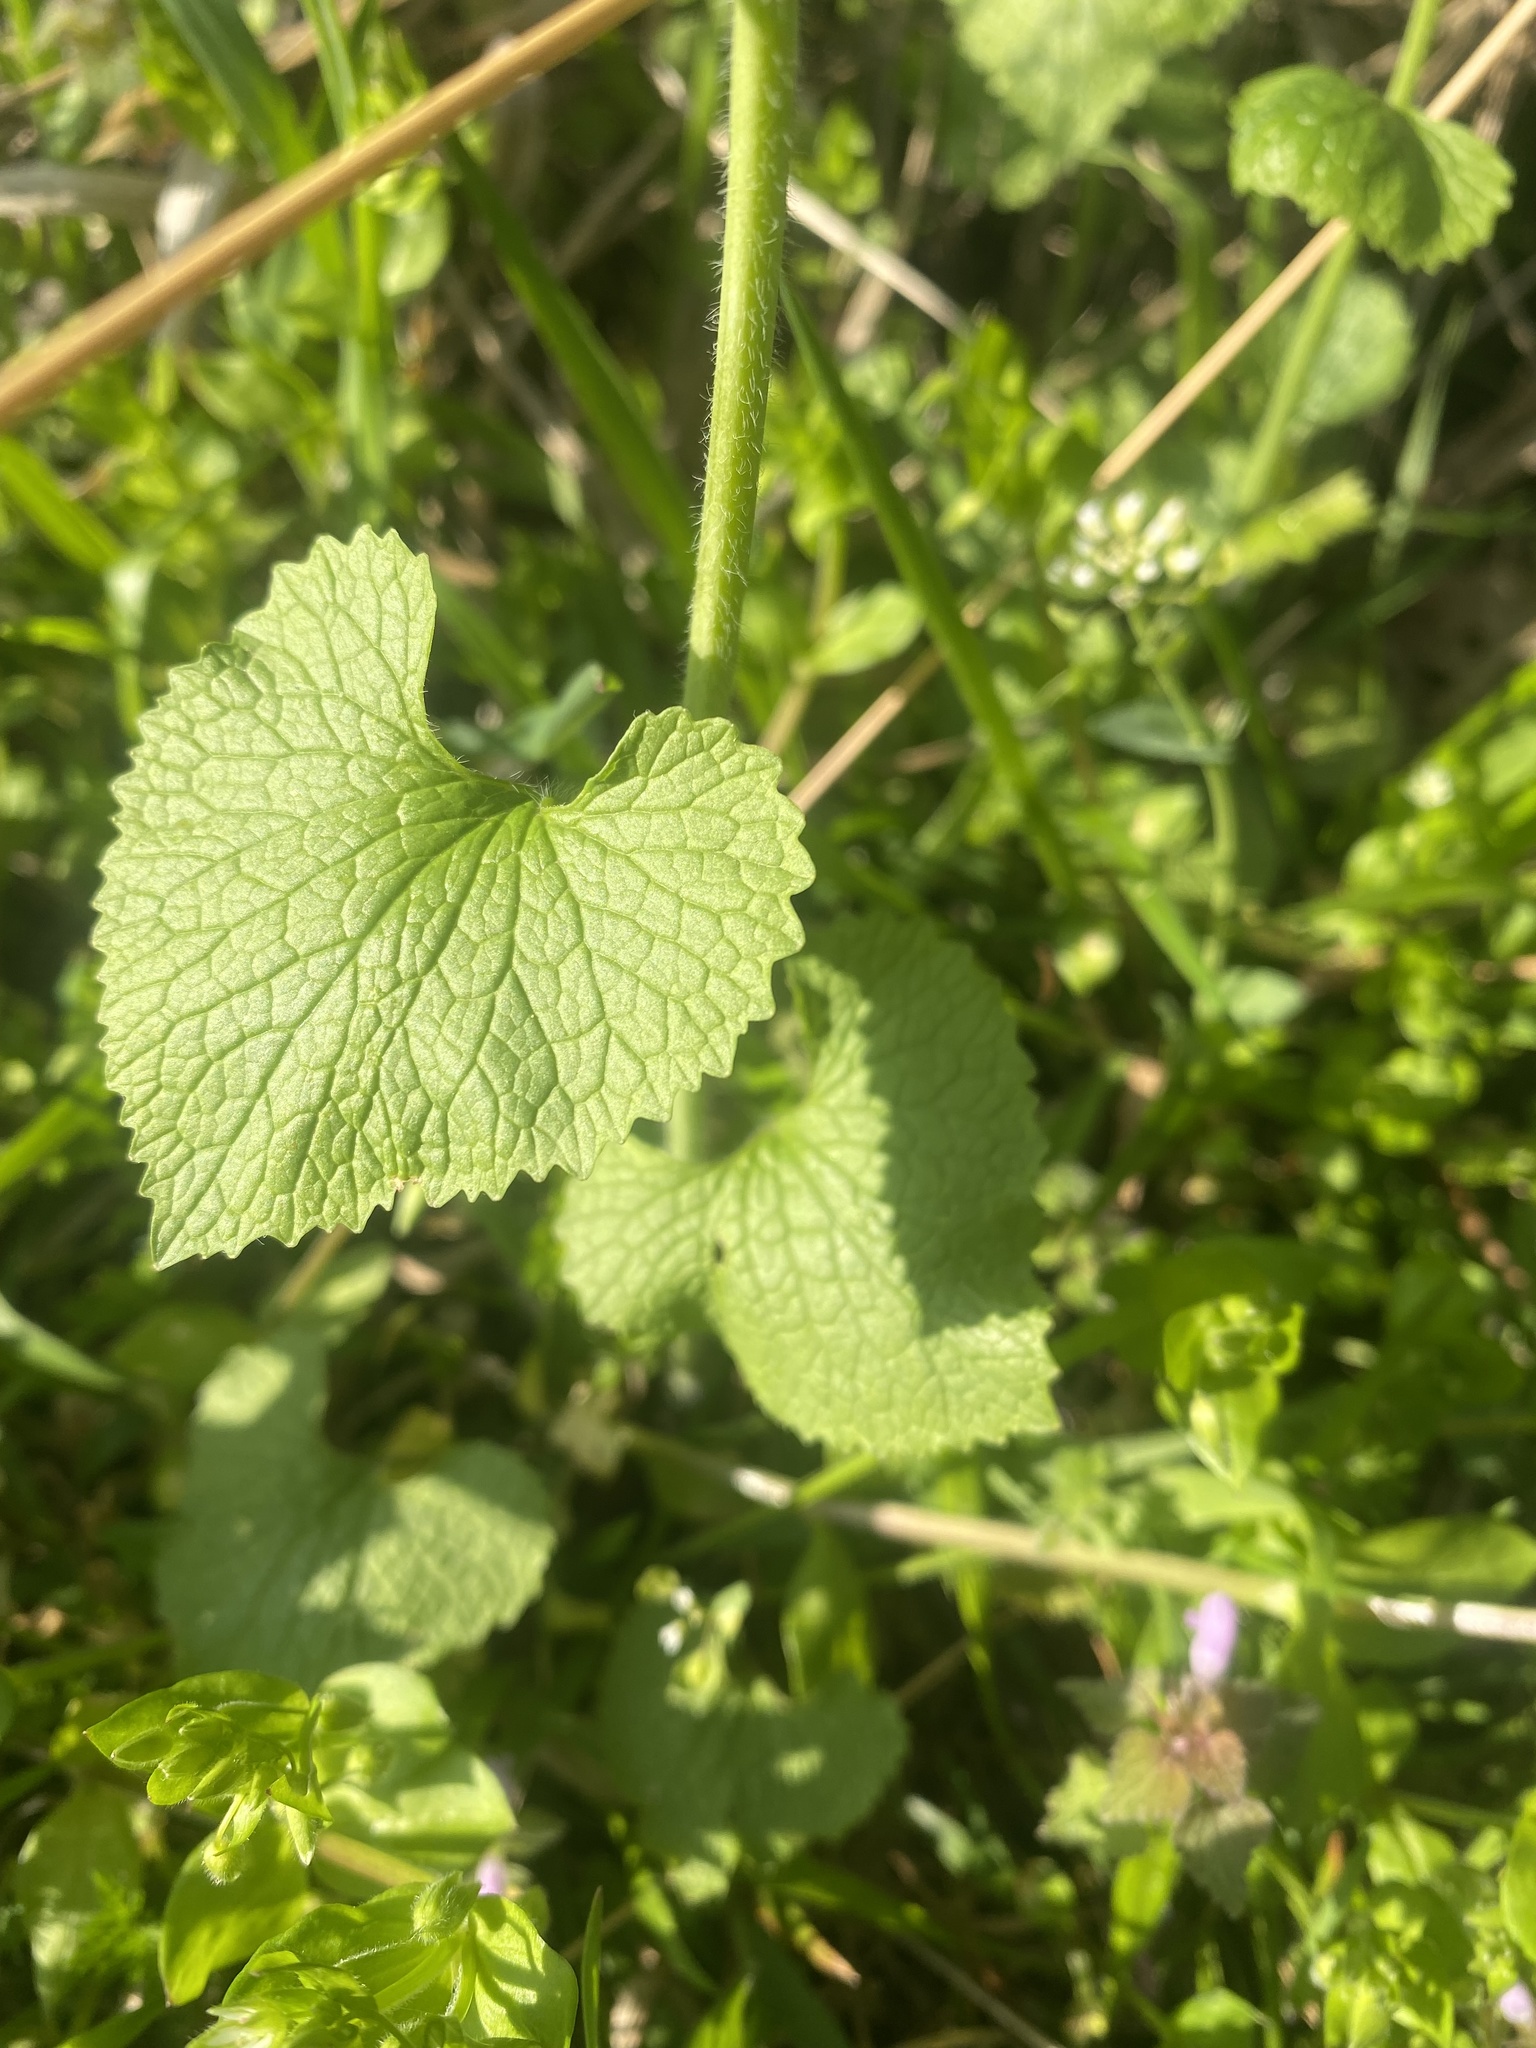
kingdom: Plantae
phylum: Tracheophyta
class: Magnoliopsida
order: Brassicales
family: Brassicaceae
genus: Alliaria
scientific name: Alliaria petiolata
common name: Garlic mustard
